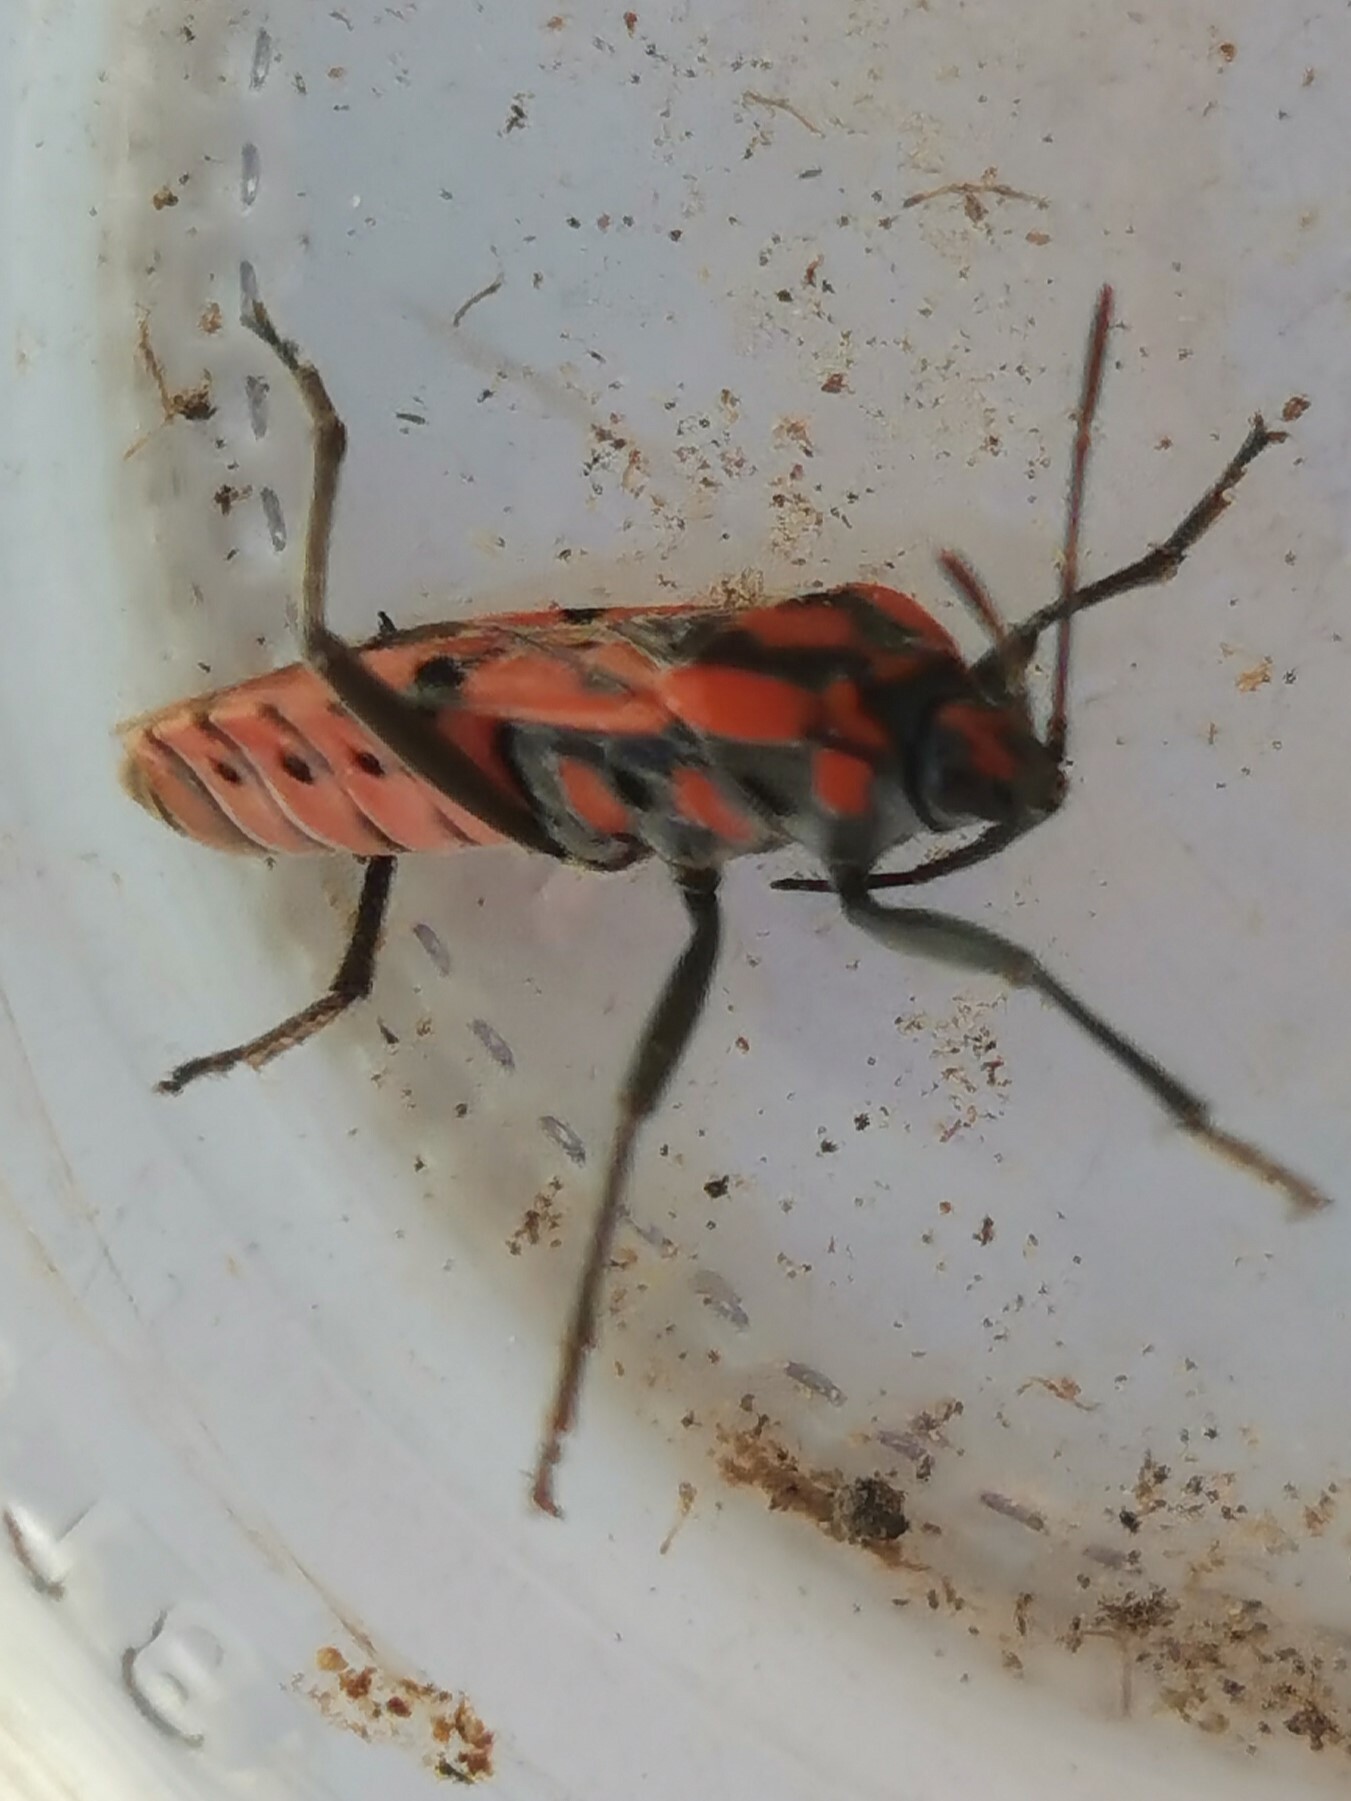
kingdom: Animalia
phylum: Arthropoda
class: Insecta
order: Hemiptera
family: Lygaeidae
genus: Spilostethus
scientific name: Spilostethus pandurus
